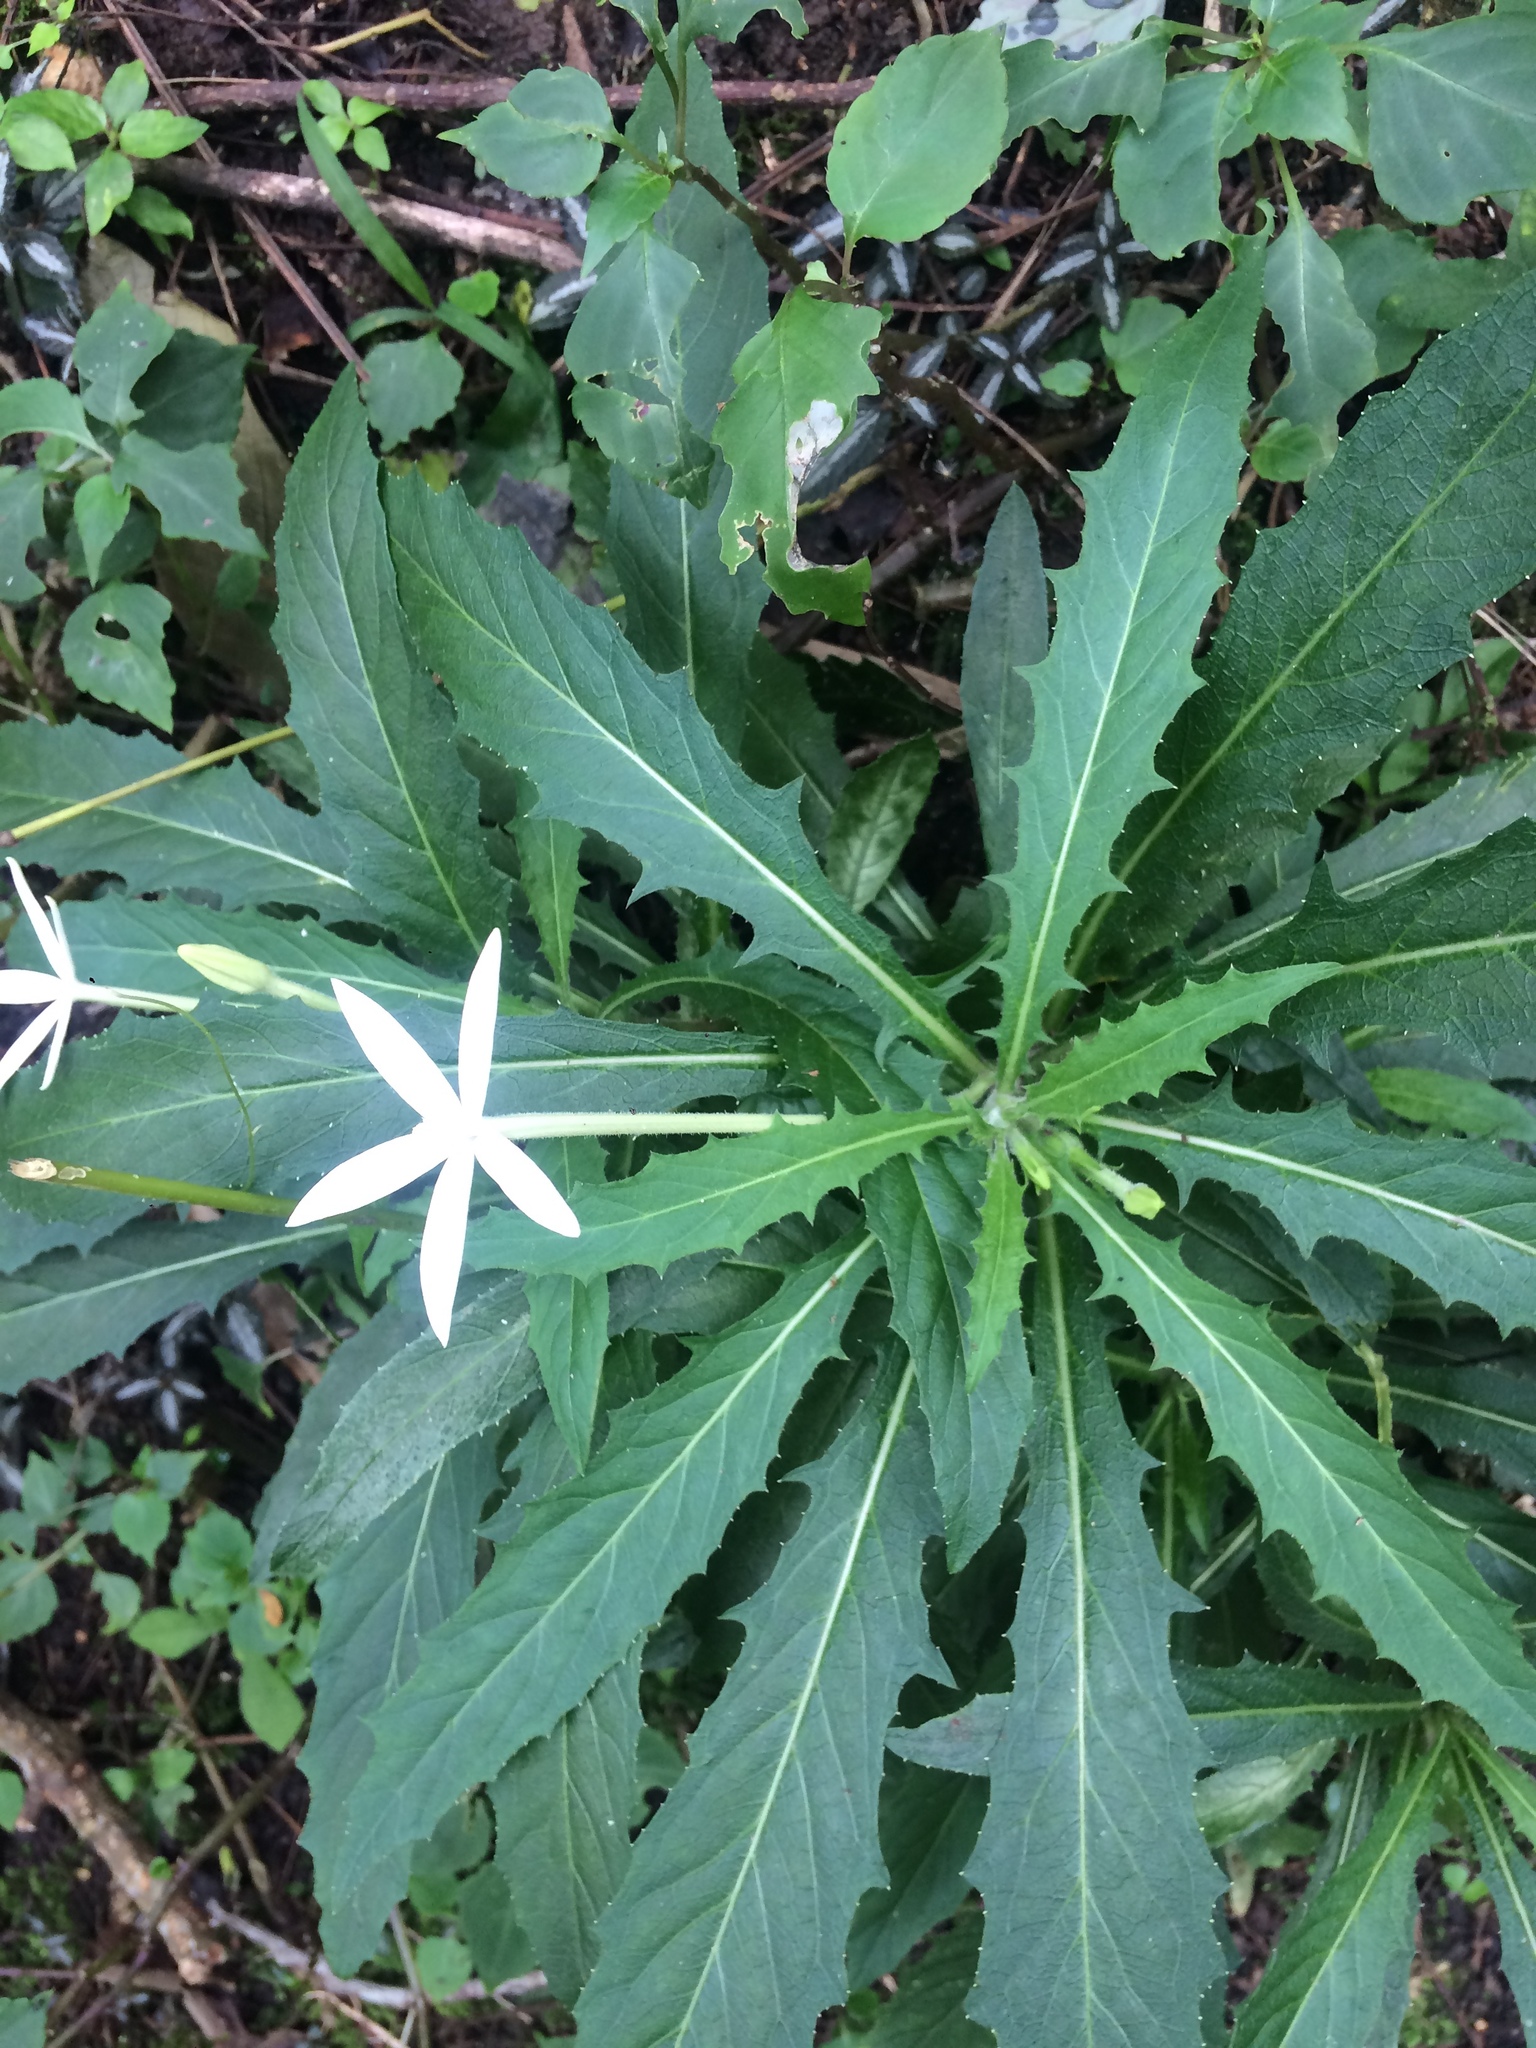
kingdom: Plantae
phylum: Tracheophyta
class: Magnoliopsida
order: Asterales
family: Campanulaceae
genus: Hippobroma
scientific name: Hippobroma longiflora
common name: Madamfate
